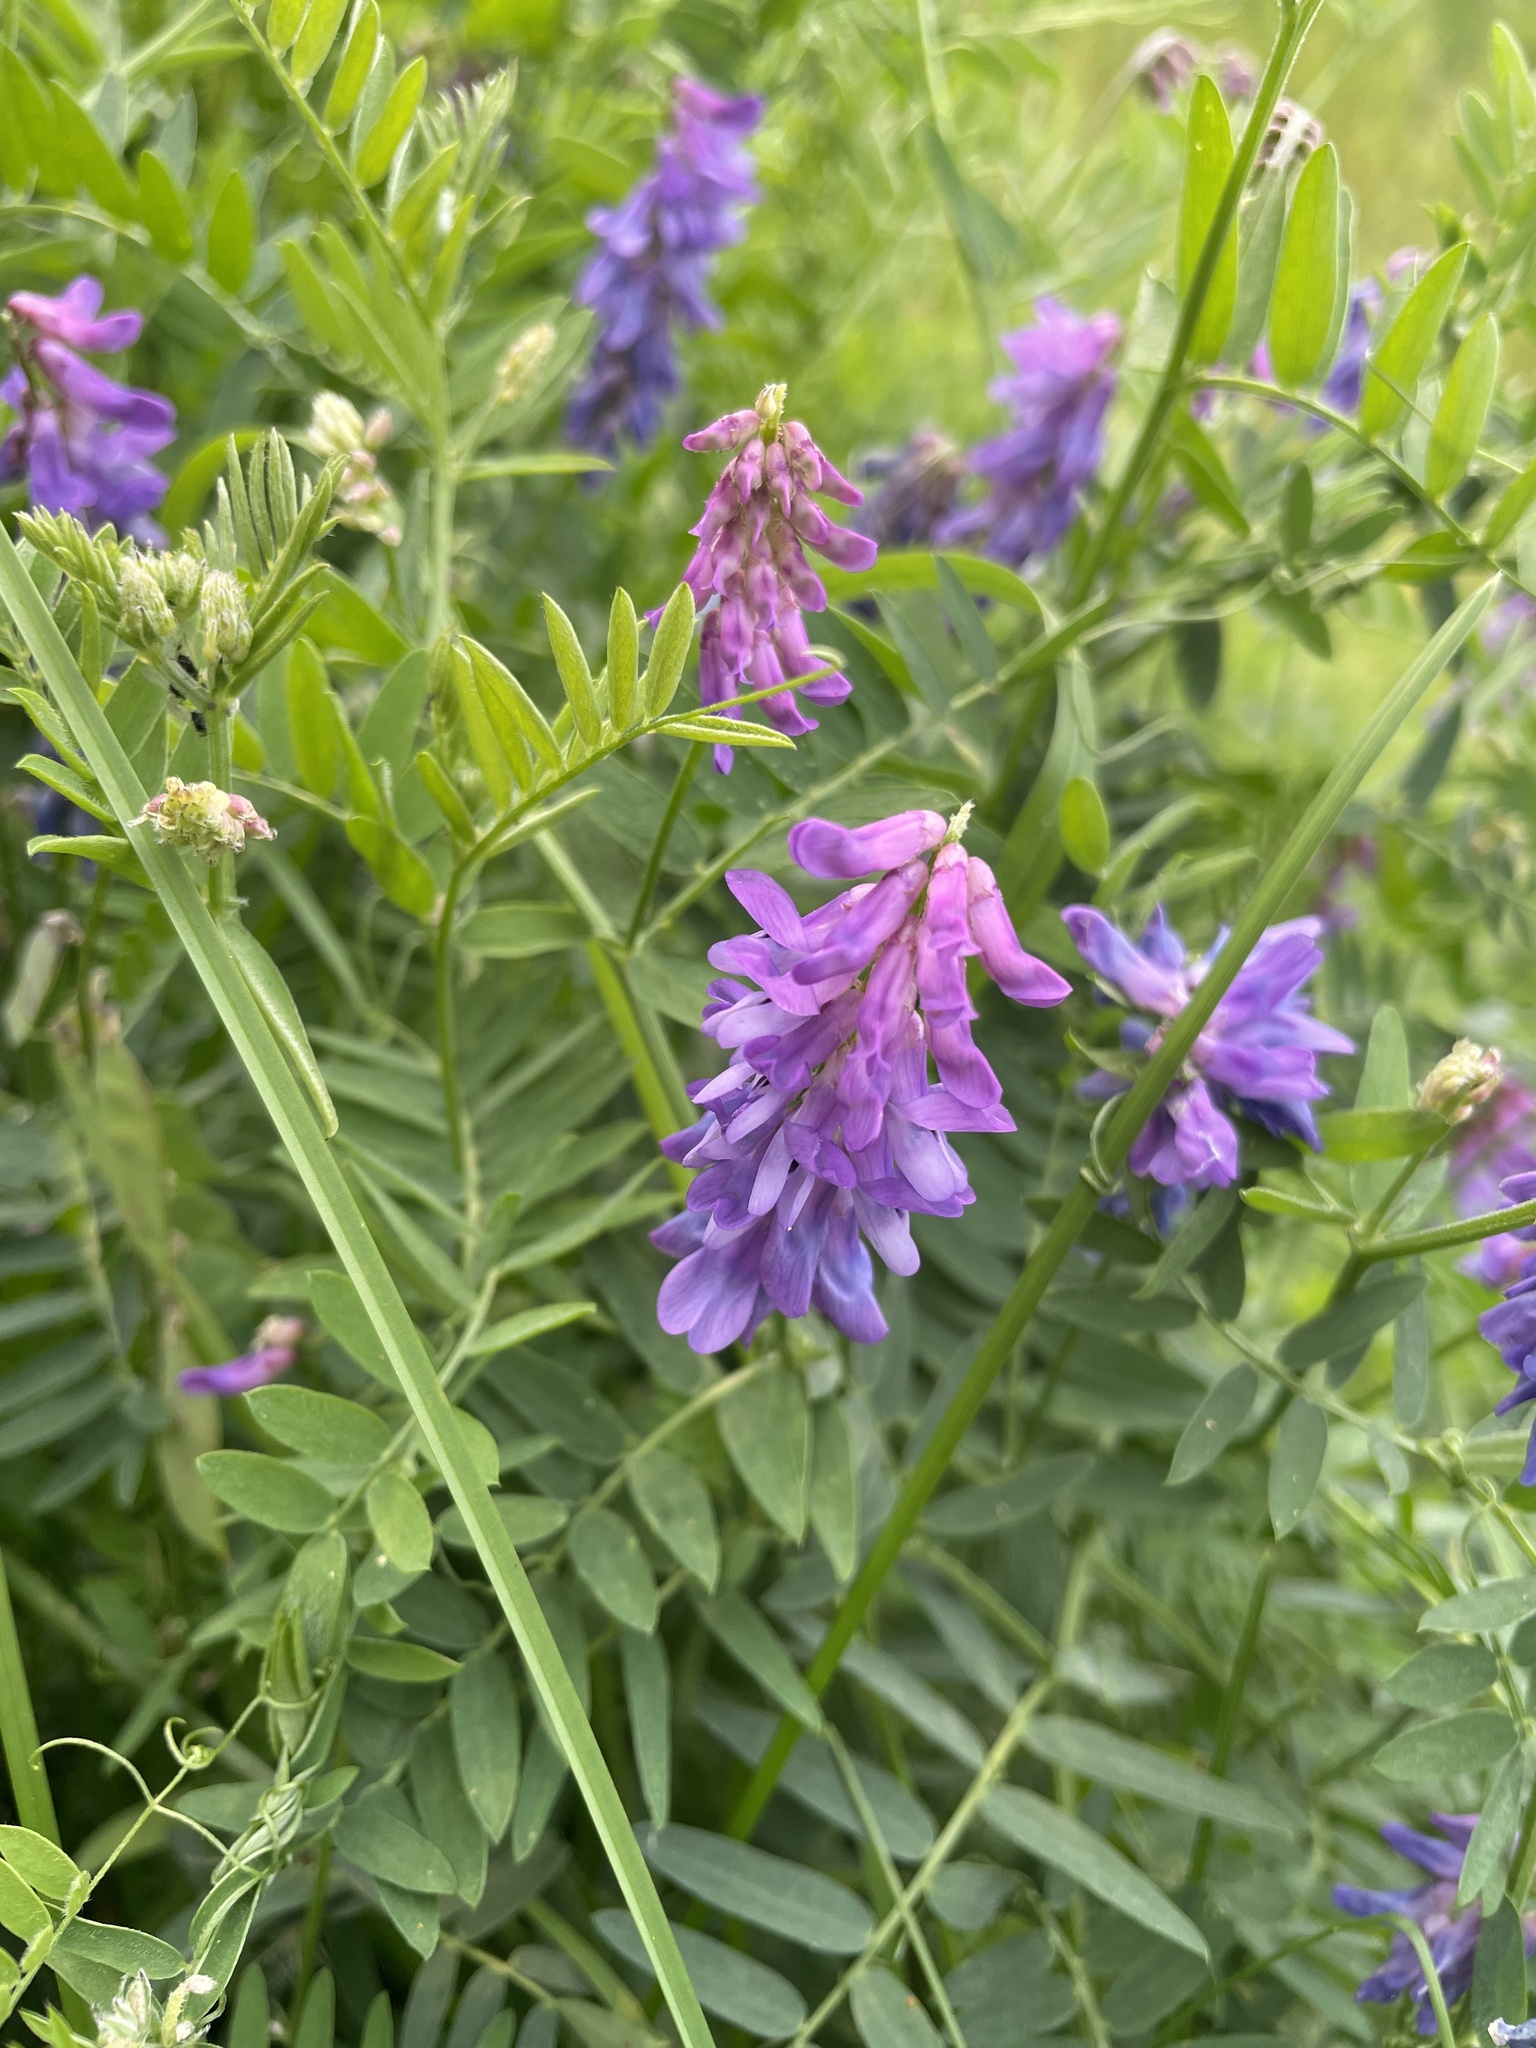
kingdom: Plantae
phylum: Tracheophyta
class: Magnoliopsida
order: Fabales
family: Fabaceae
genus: Vicia
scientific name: Vicia cracca
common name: Bird vetch
